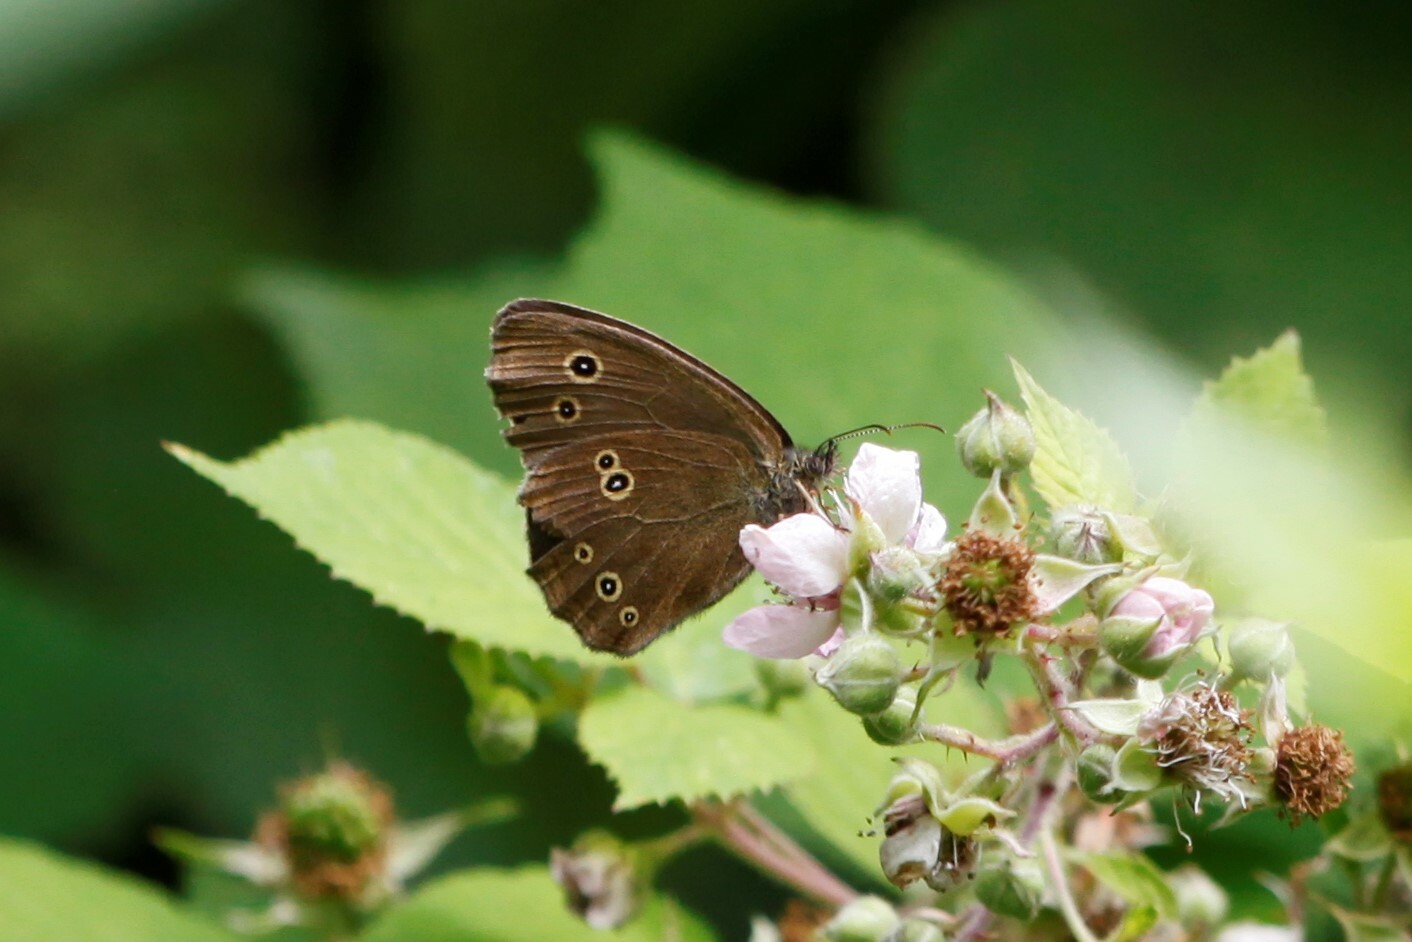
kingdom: Animalia
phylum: Arthropoda
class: Insecta
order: Lepidoptera
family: Nymphalidae
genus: Aphantopus
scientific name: Aphantopus hyperantus
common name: Ringlet
